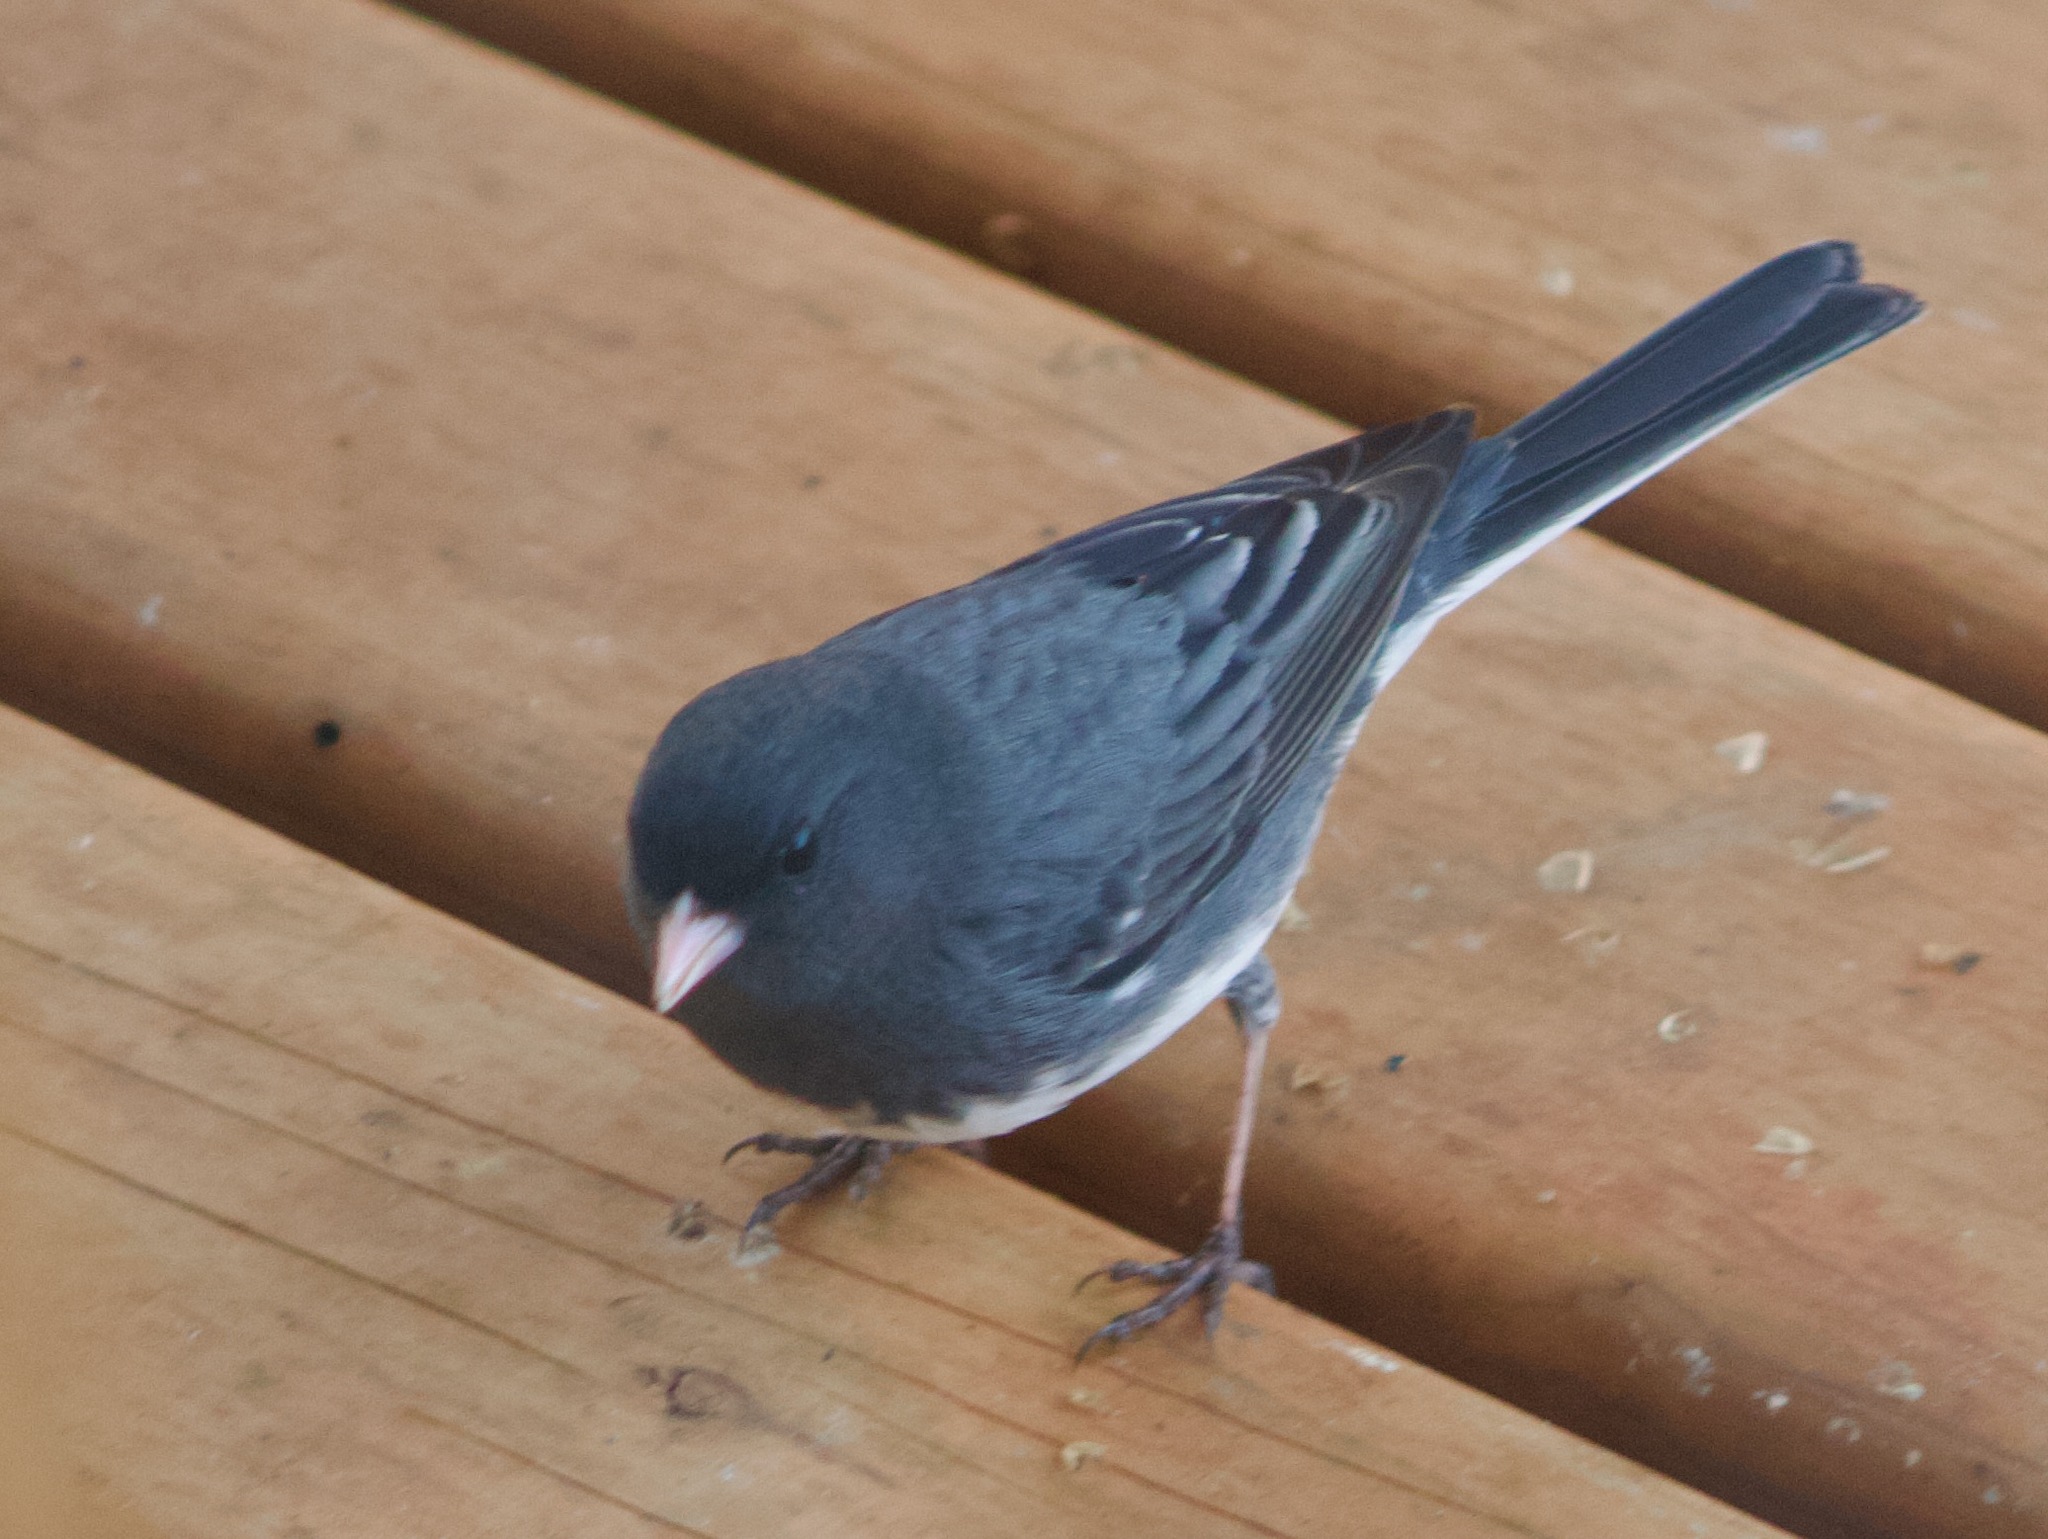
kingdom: Animalia
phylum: Chordata
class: Aves
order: Passeriformes
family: Passerellidae
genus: Junco
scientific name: Junco hyemalis
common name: Dark-eyed junco
